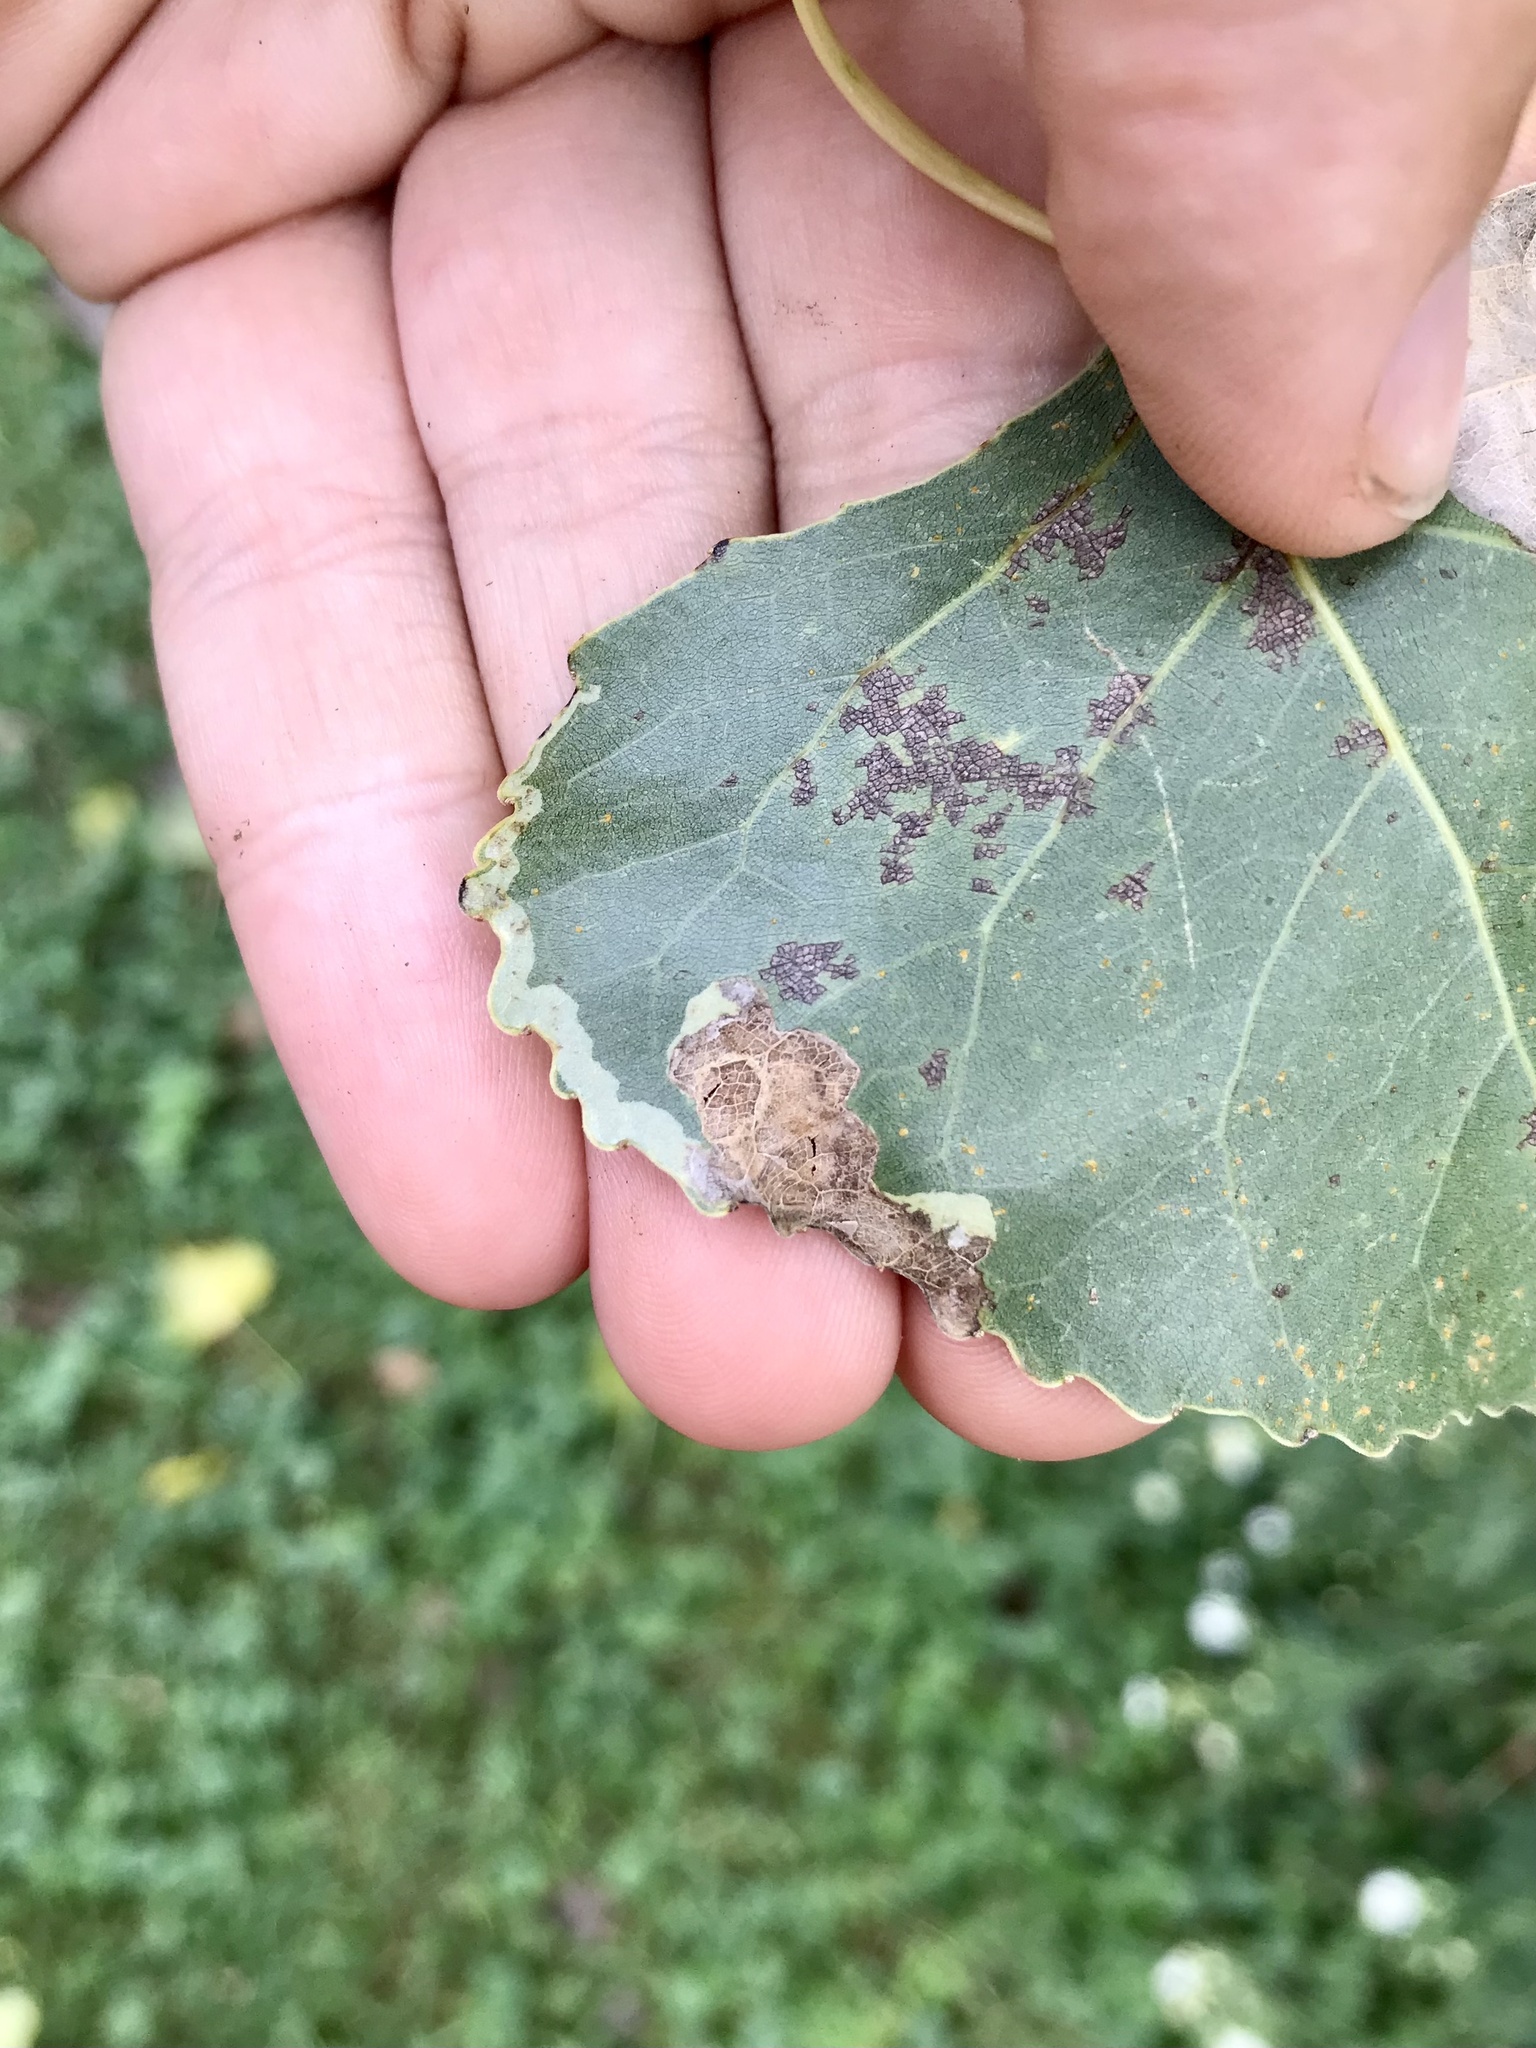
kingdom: Animalia
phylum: Arthropoda
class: Insecta
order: Diptera
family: Agromyzidae
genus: Aulagromyza
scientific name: Aulagromyza populicola
